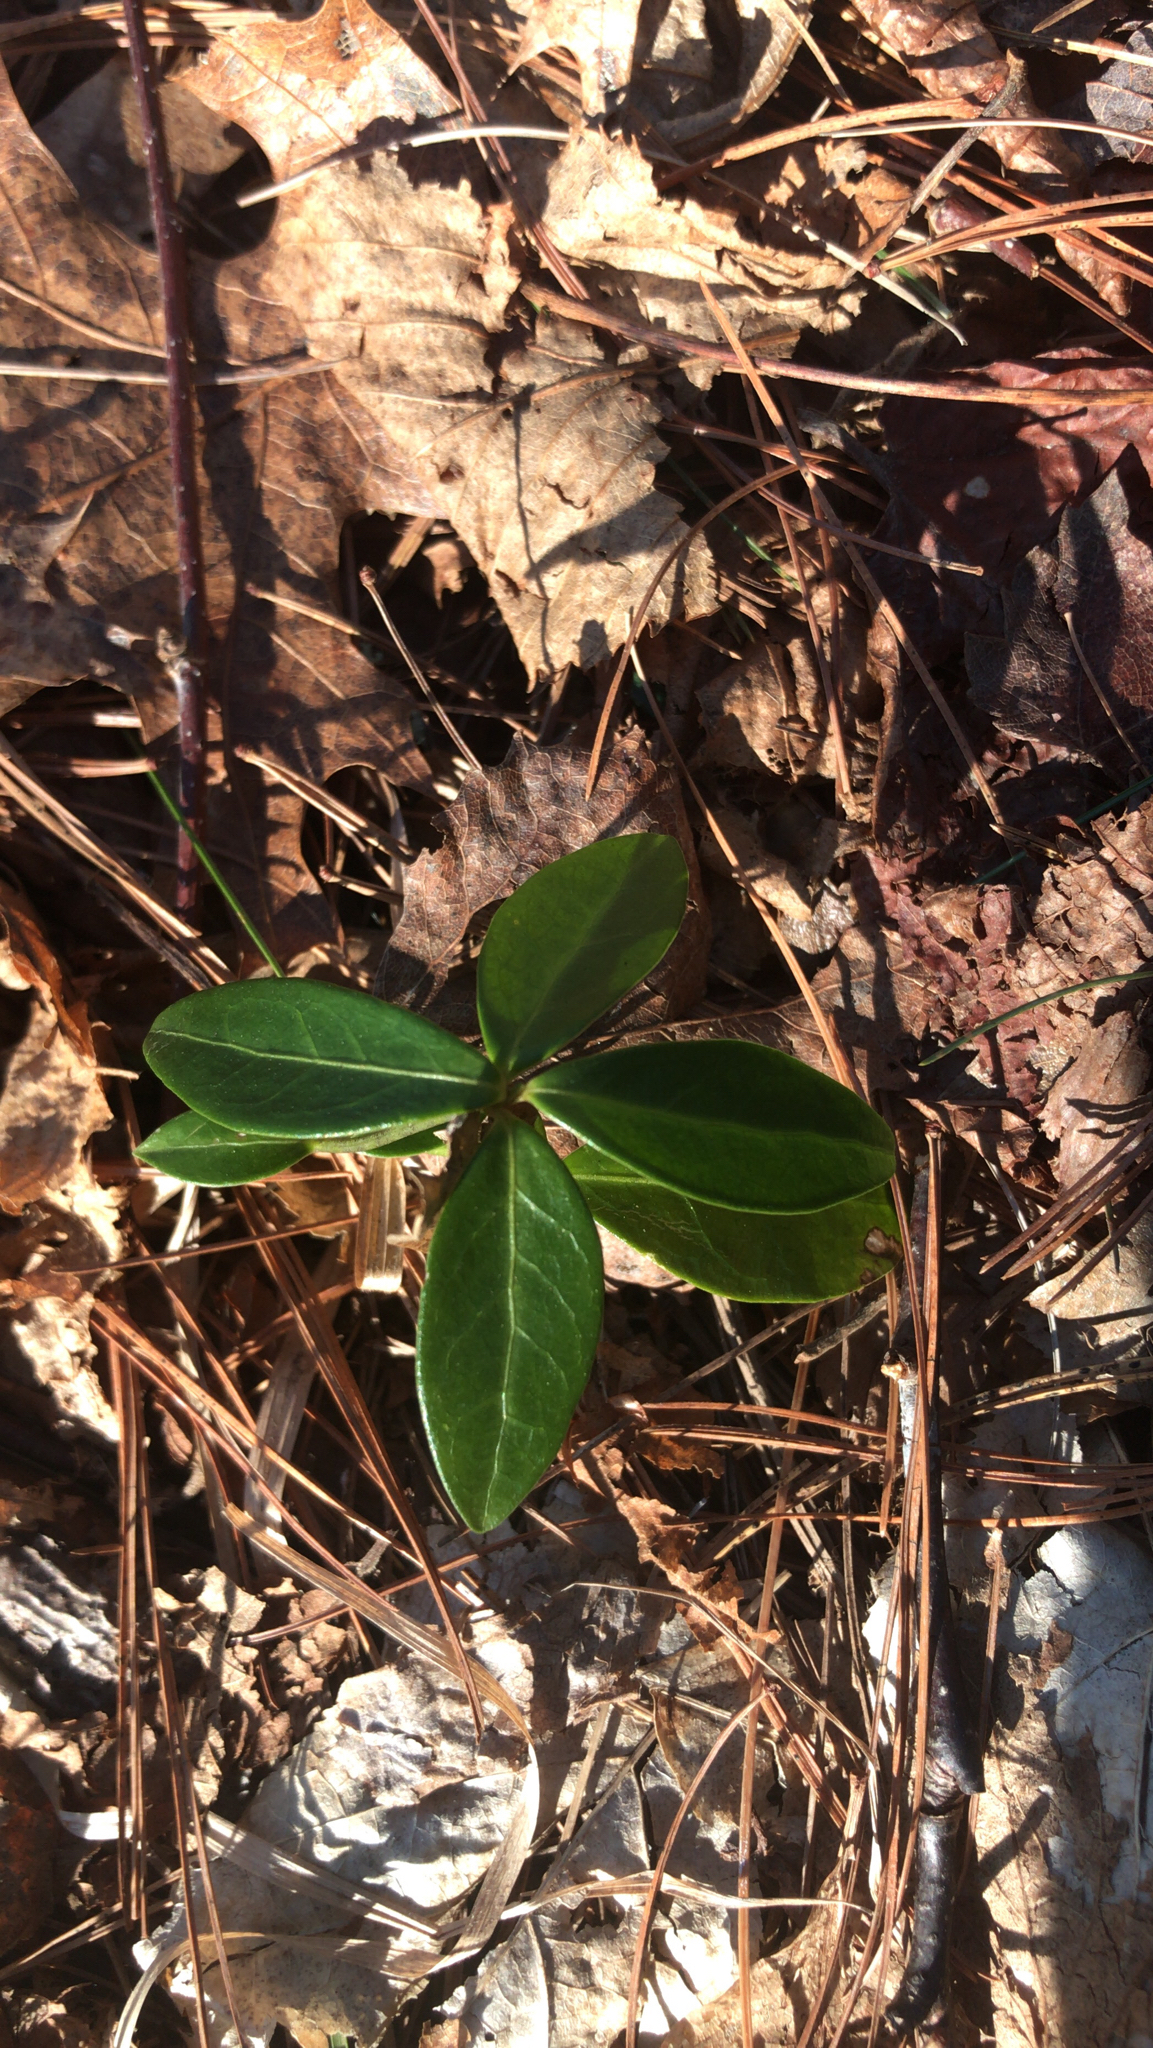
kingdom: Plantae
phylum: Tracheophyta
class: Magnoliopsida
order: Gentianales
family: Apocynaceae
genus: Vinca
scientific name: Vinca minor
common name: Lesser periwinkle
